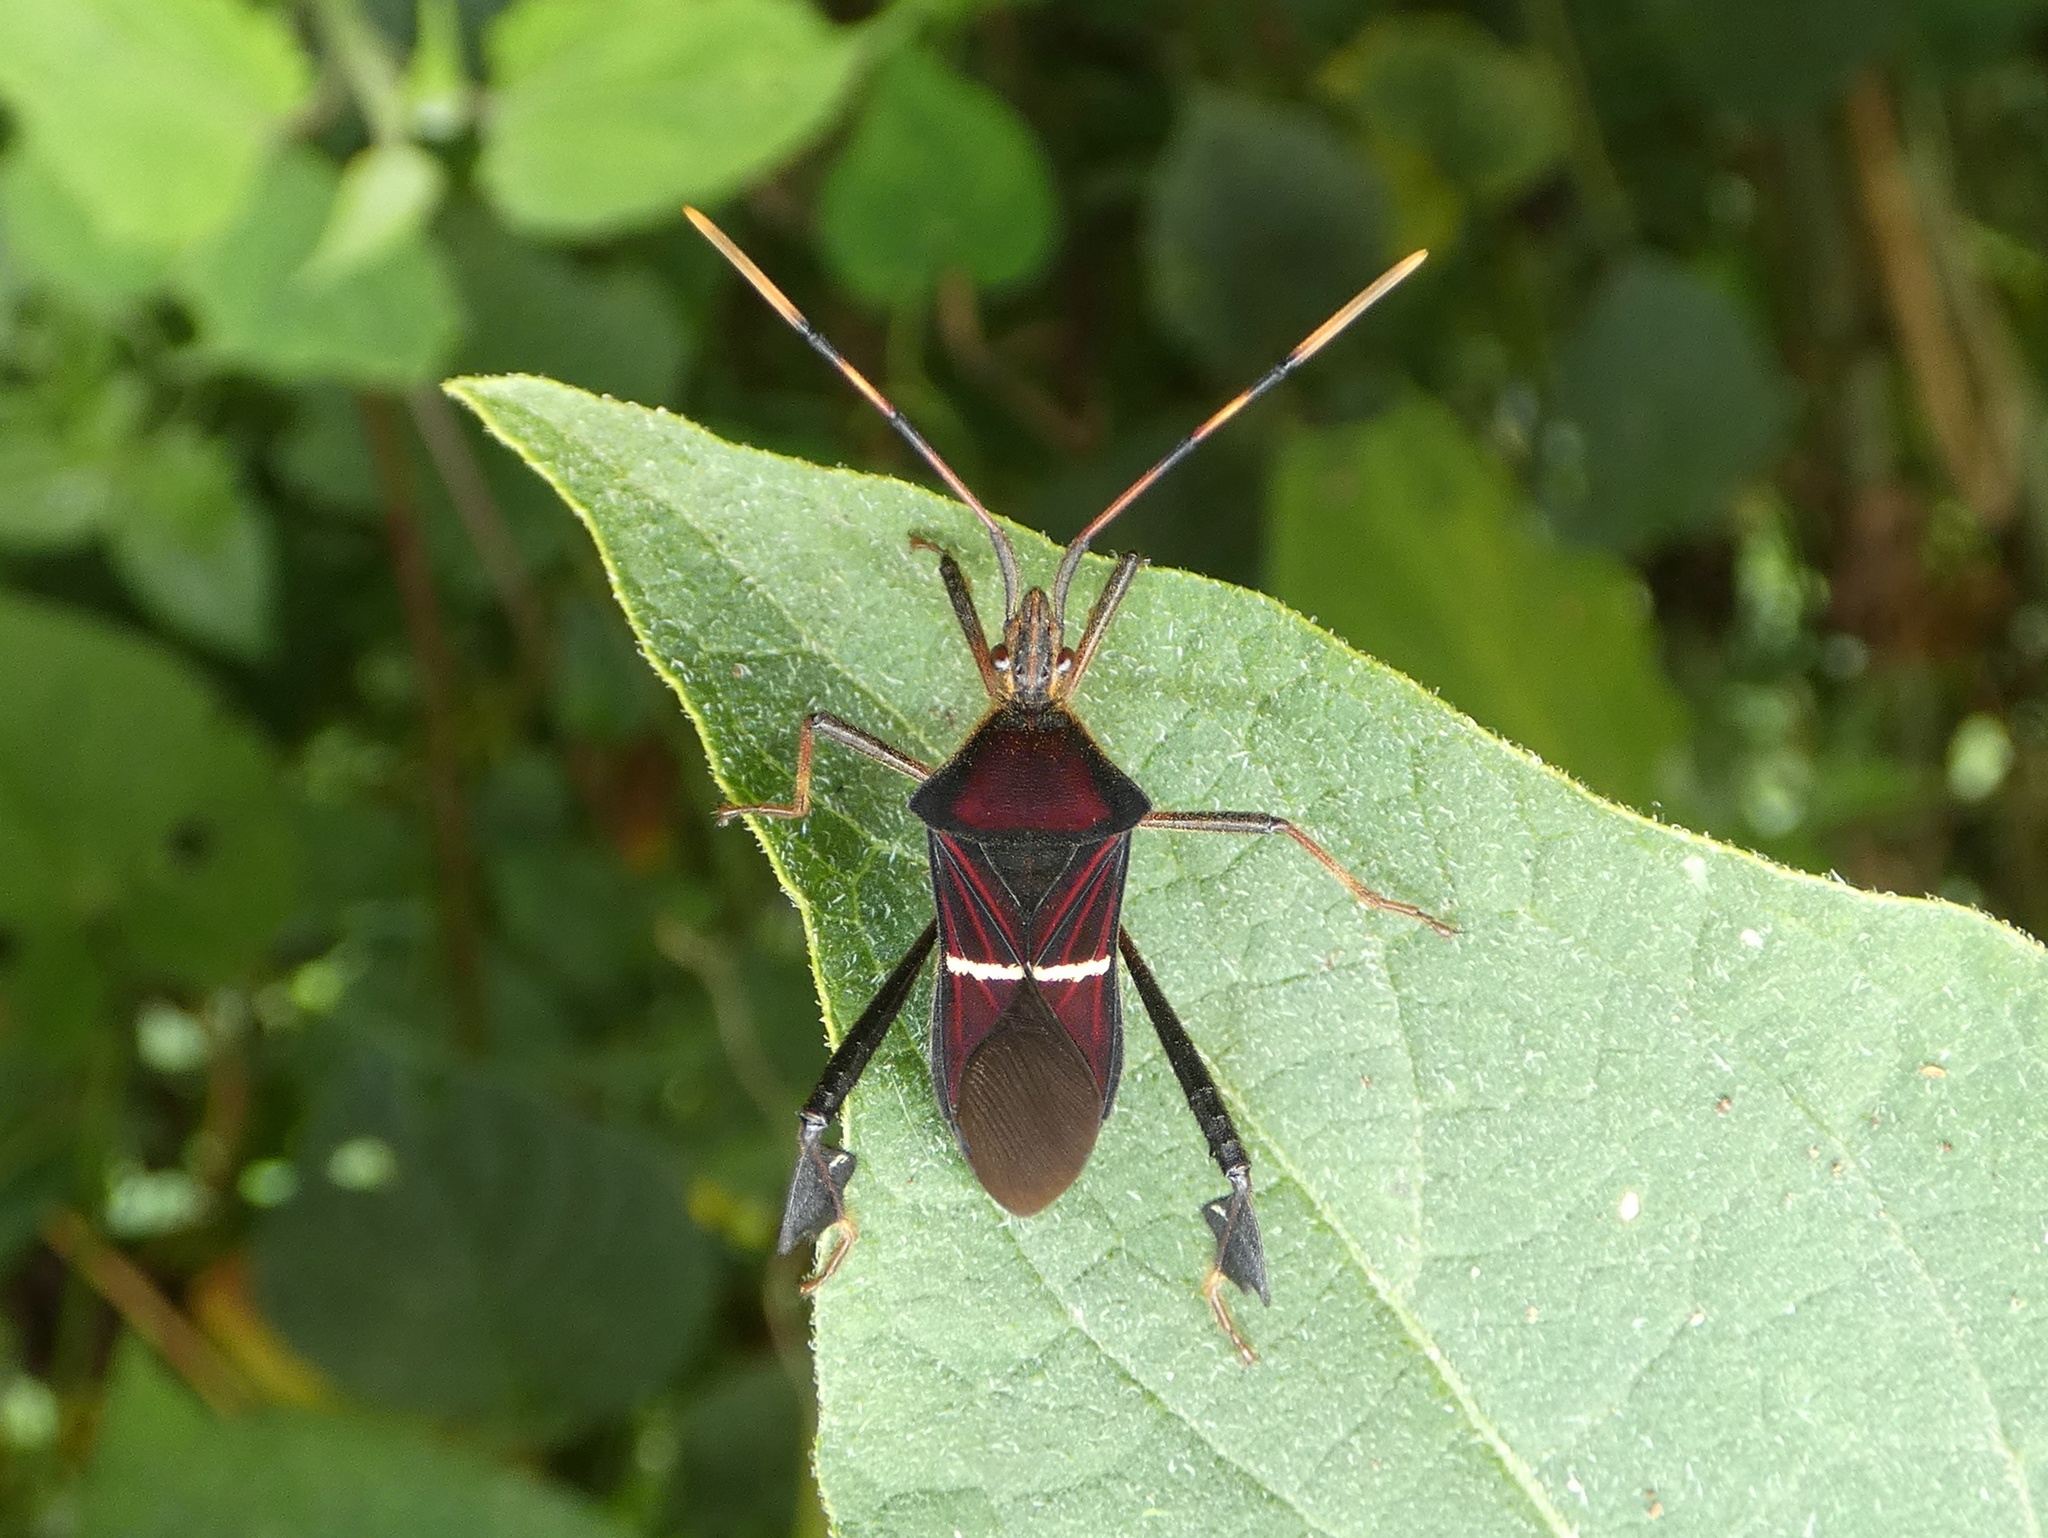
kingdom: Animalia
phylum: Arthropoda
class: Insecta
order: Hemiptera
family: Coreidae
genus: Leptoglossus
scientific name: Leptoglossus cartagoensis
